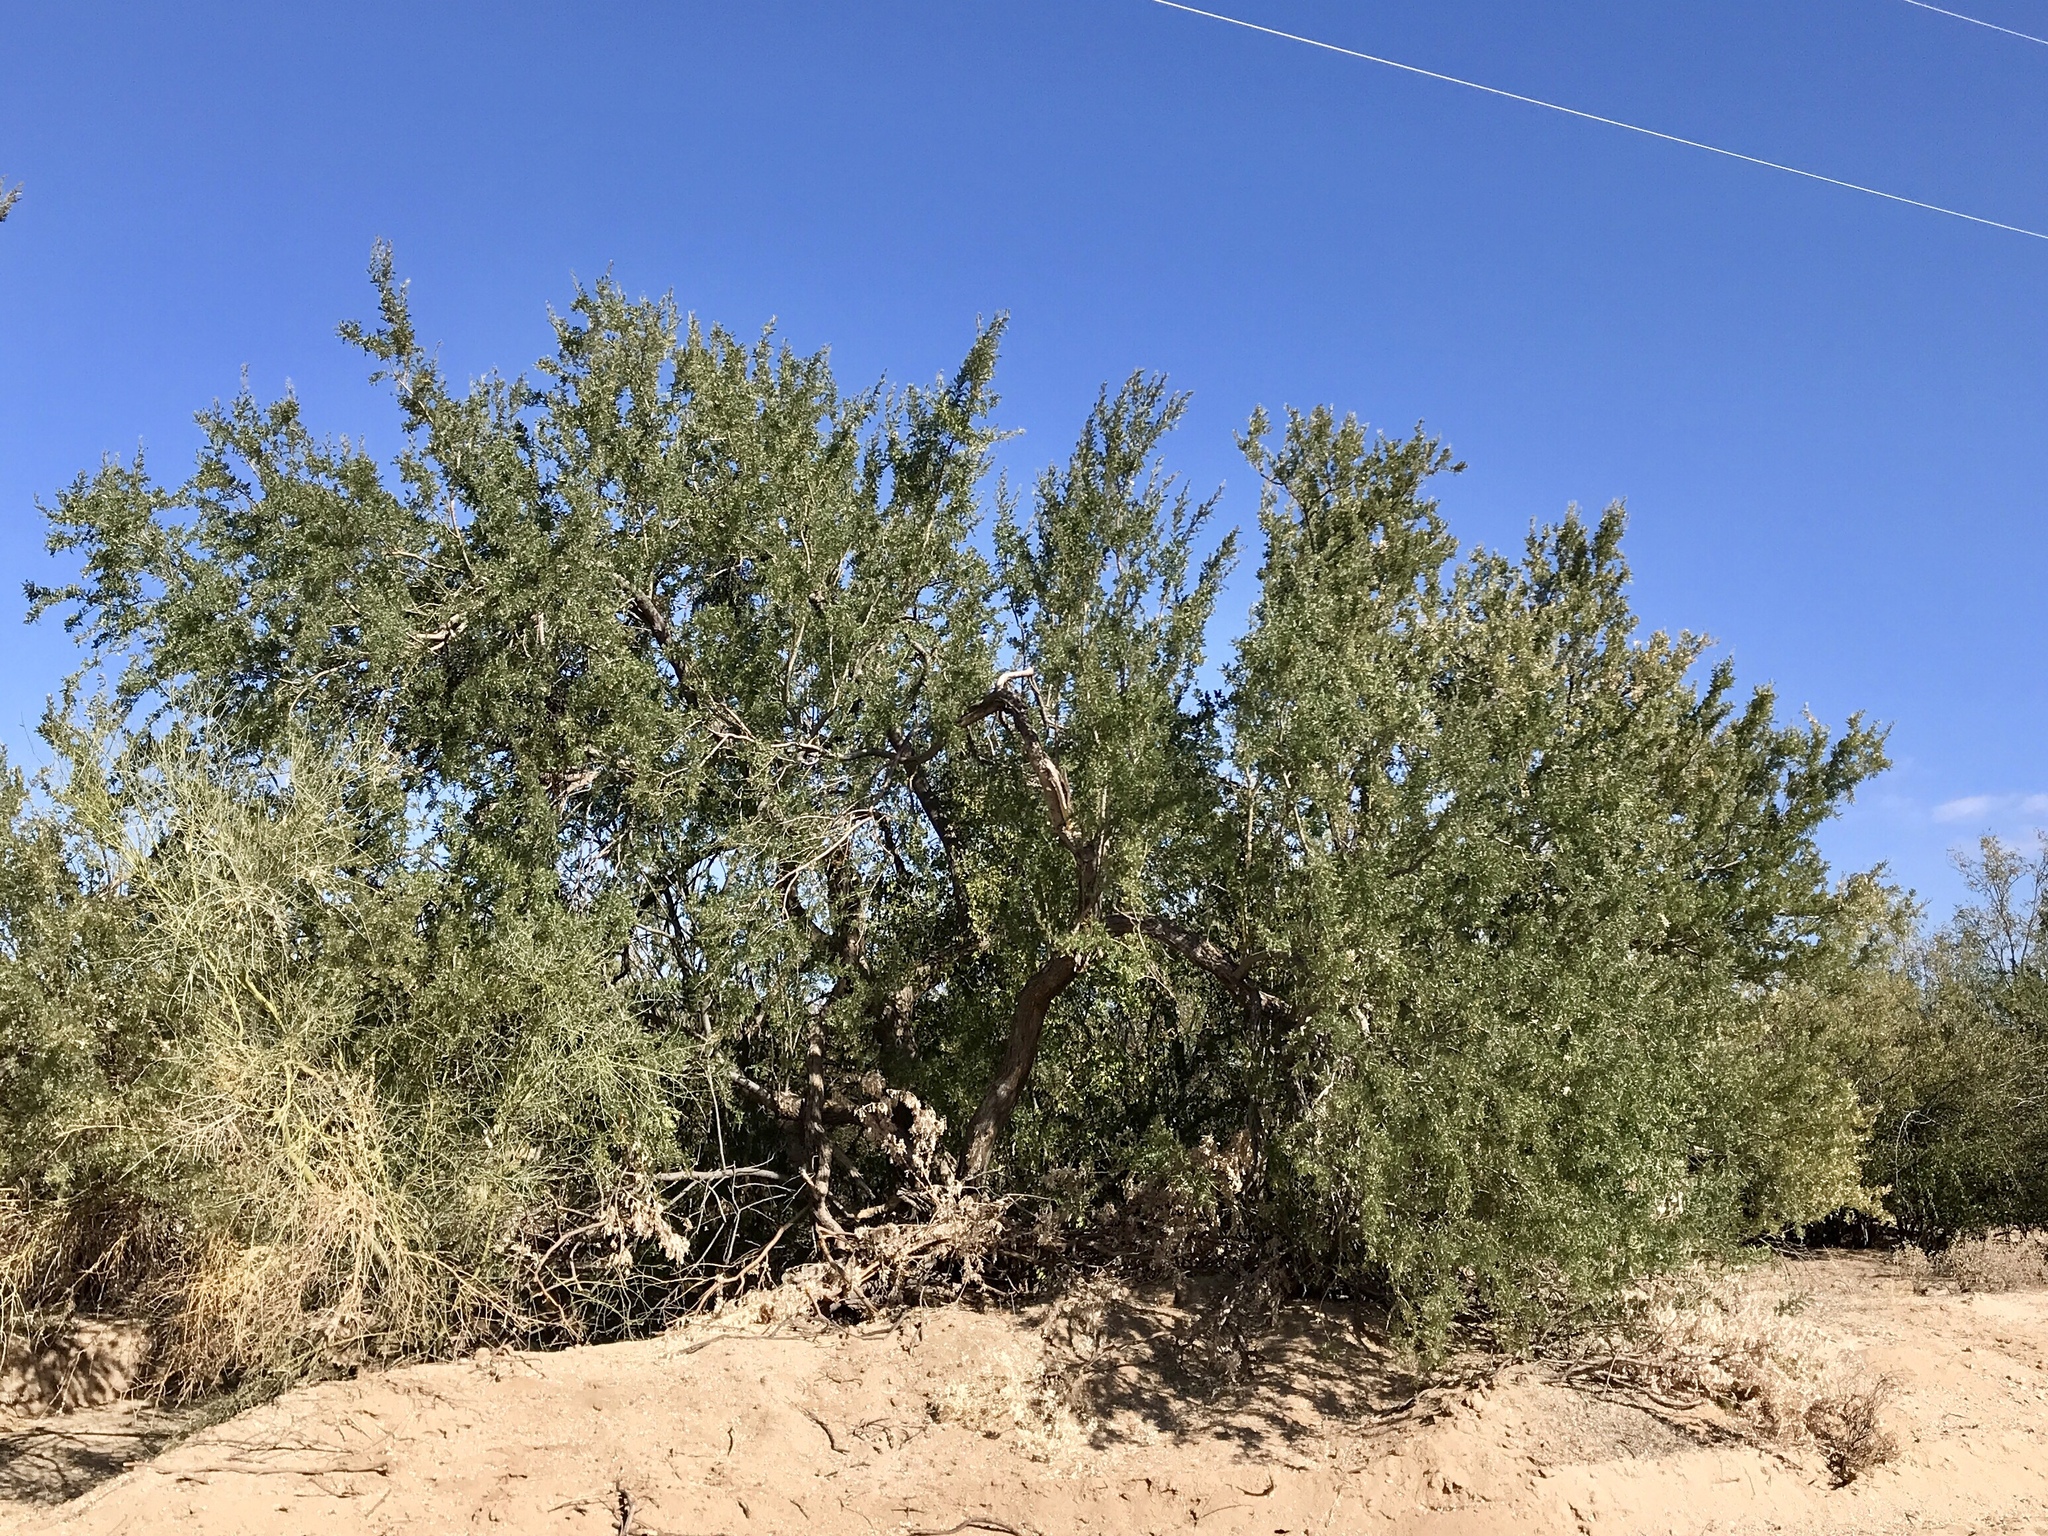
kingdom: Plantae
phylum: Tracheophyta
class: Magnoliopsida
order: Fabales
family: Fabaceae
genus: Olneya
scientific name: Olneya tesota
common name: Desert ironwood
